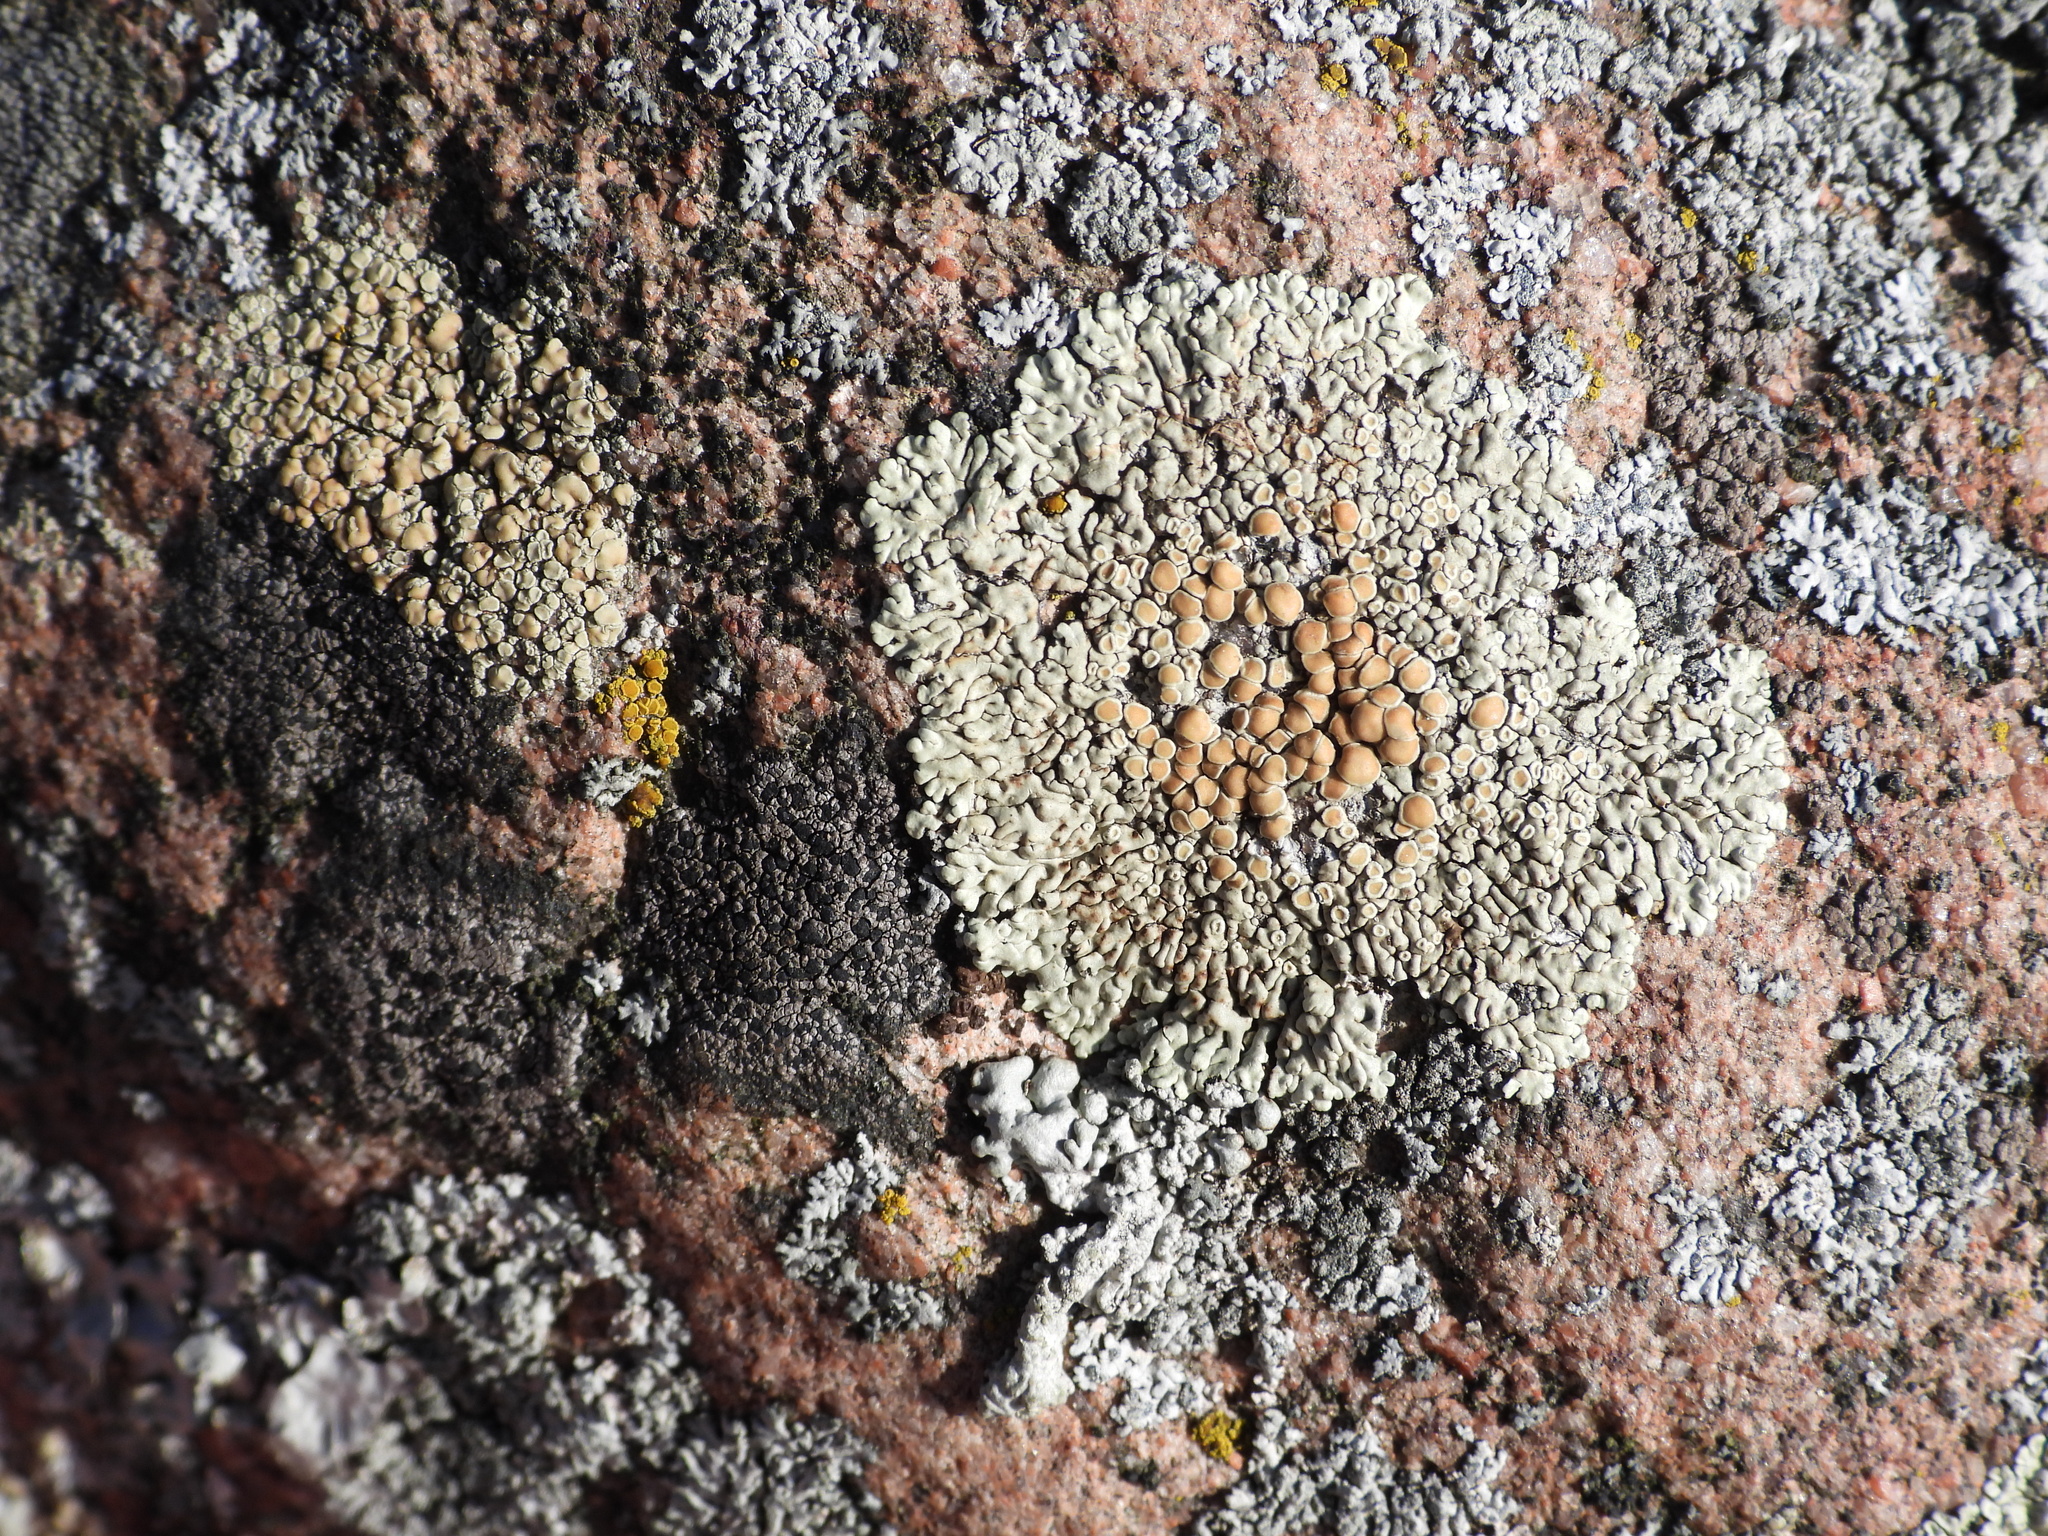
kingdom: Fungi
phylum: Ascomycota
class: Lecanoromycetes
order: Lecanorales
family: Lecanoraceae
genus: Protoparmeliopsis
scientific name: Protoparmeliopsis muralis
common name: Stonewall rim lichen
